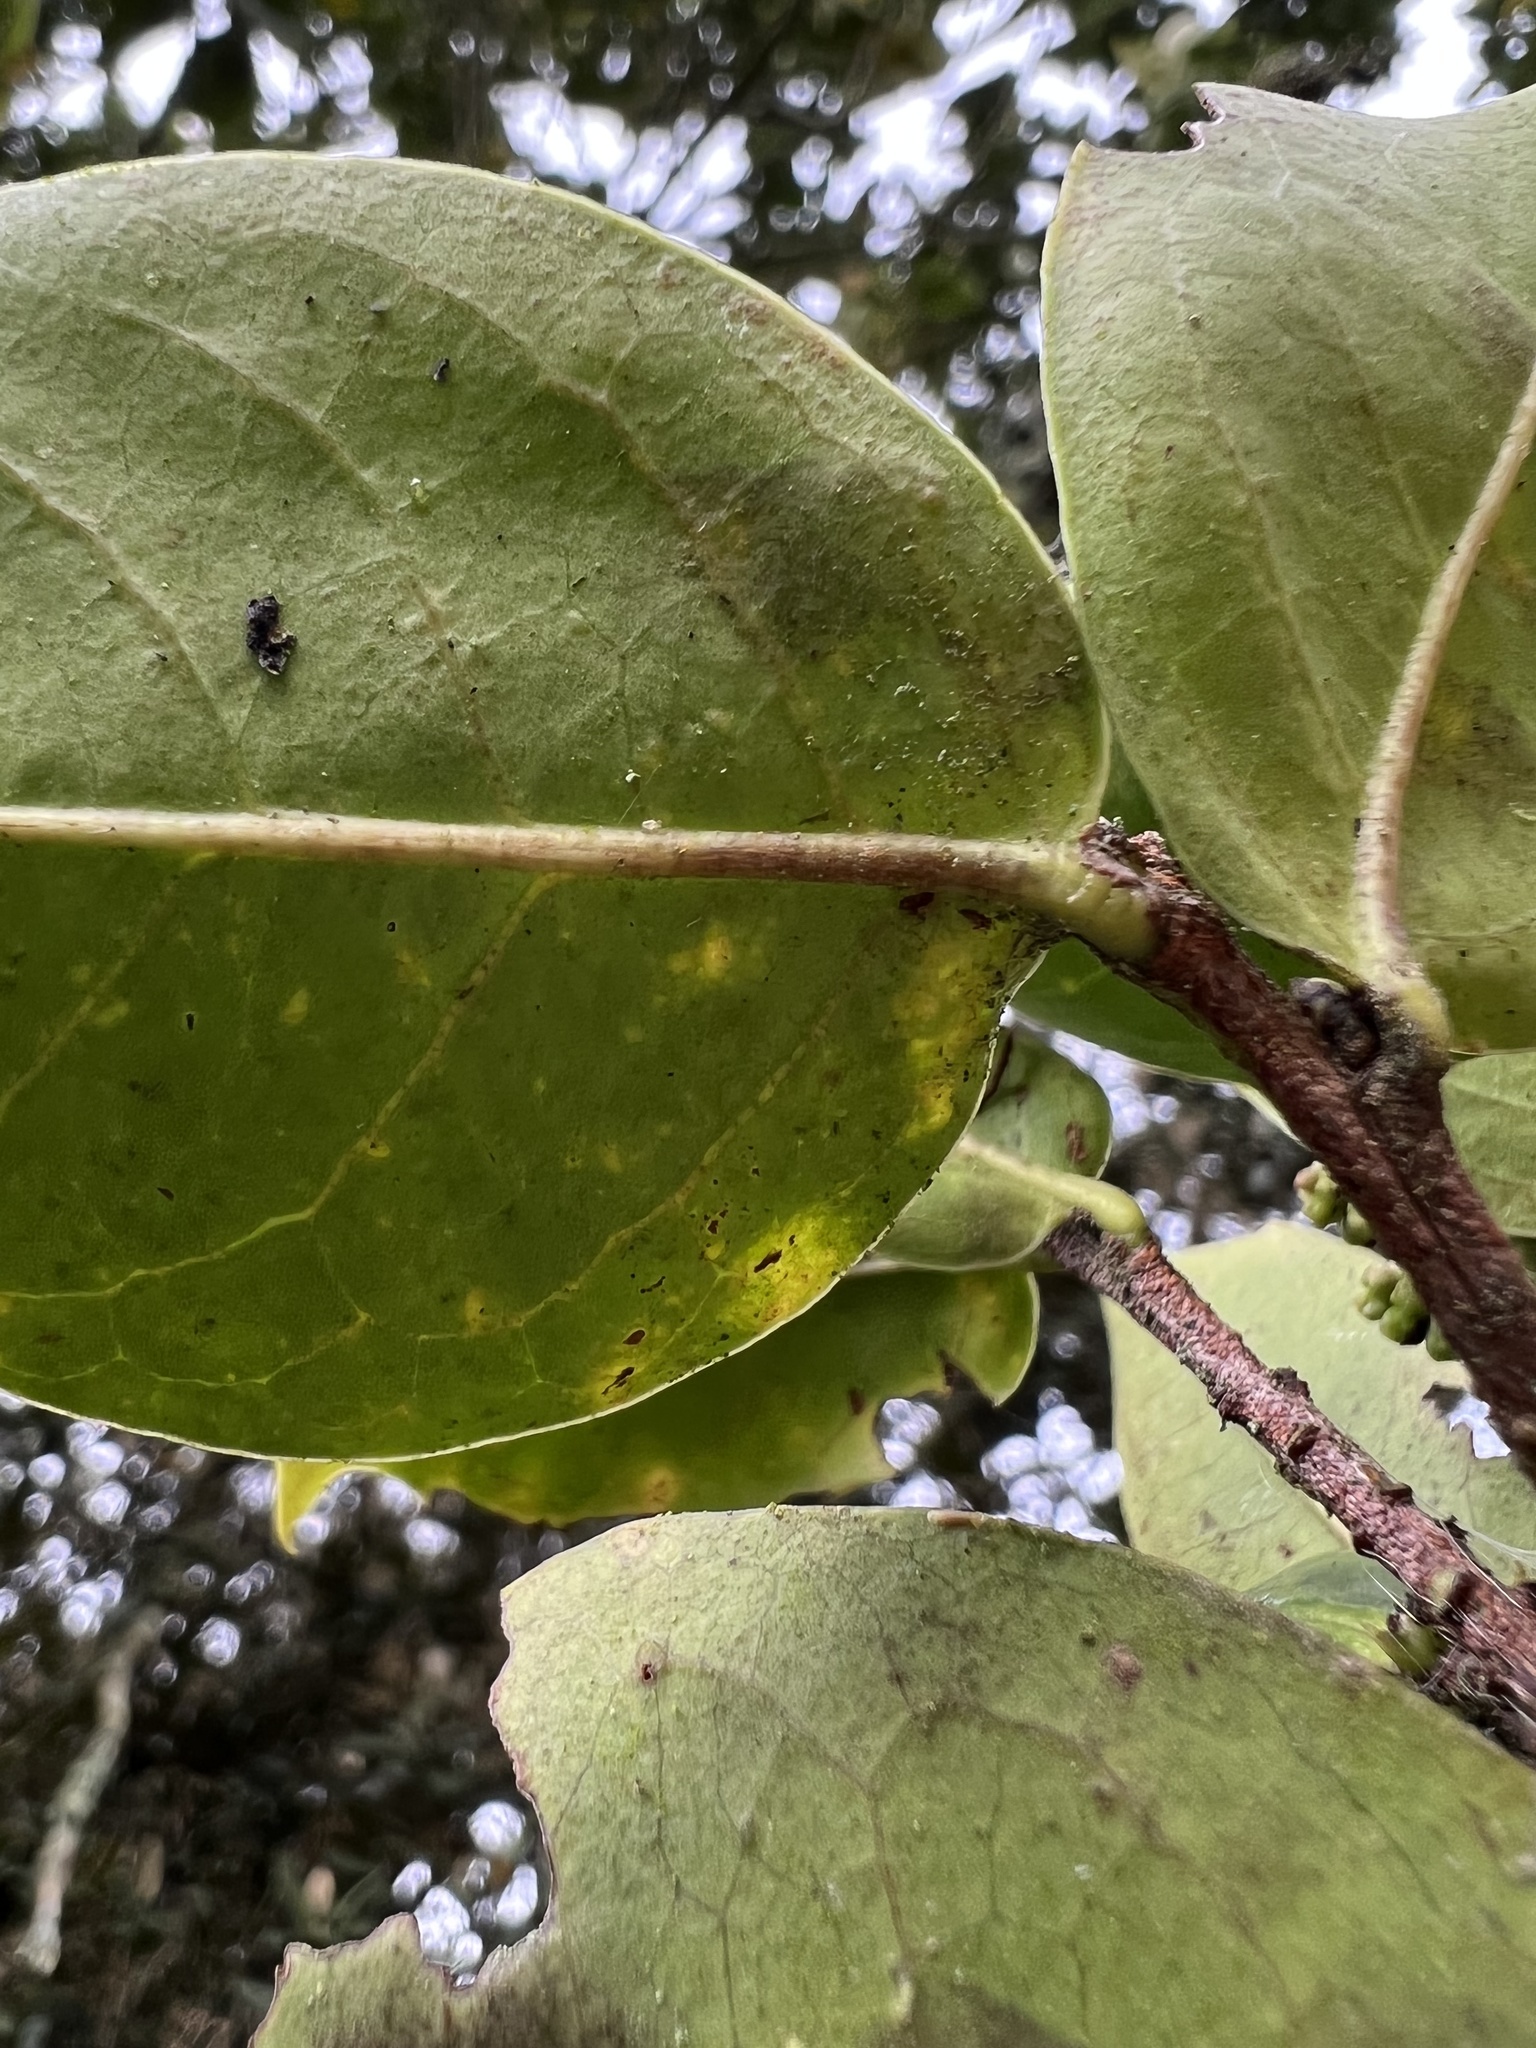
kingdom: Plantae
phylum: Tracheophyta
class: Magnoliopsida
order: Rosales
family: Rosaceae
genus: Prunus
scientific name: Prunus buxifolia
